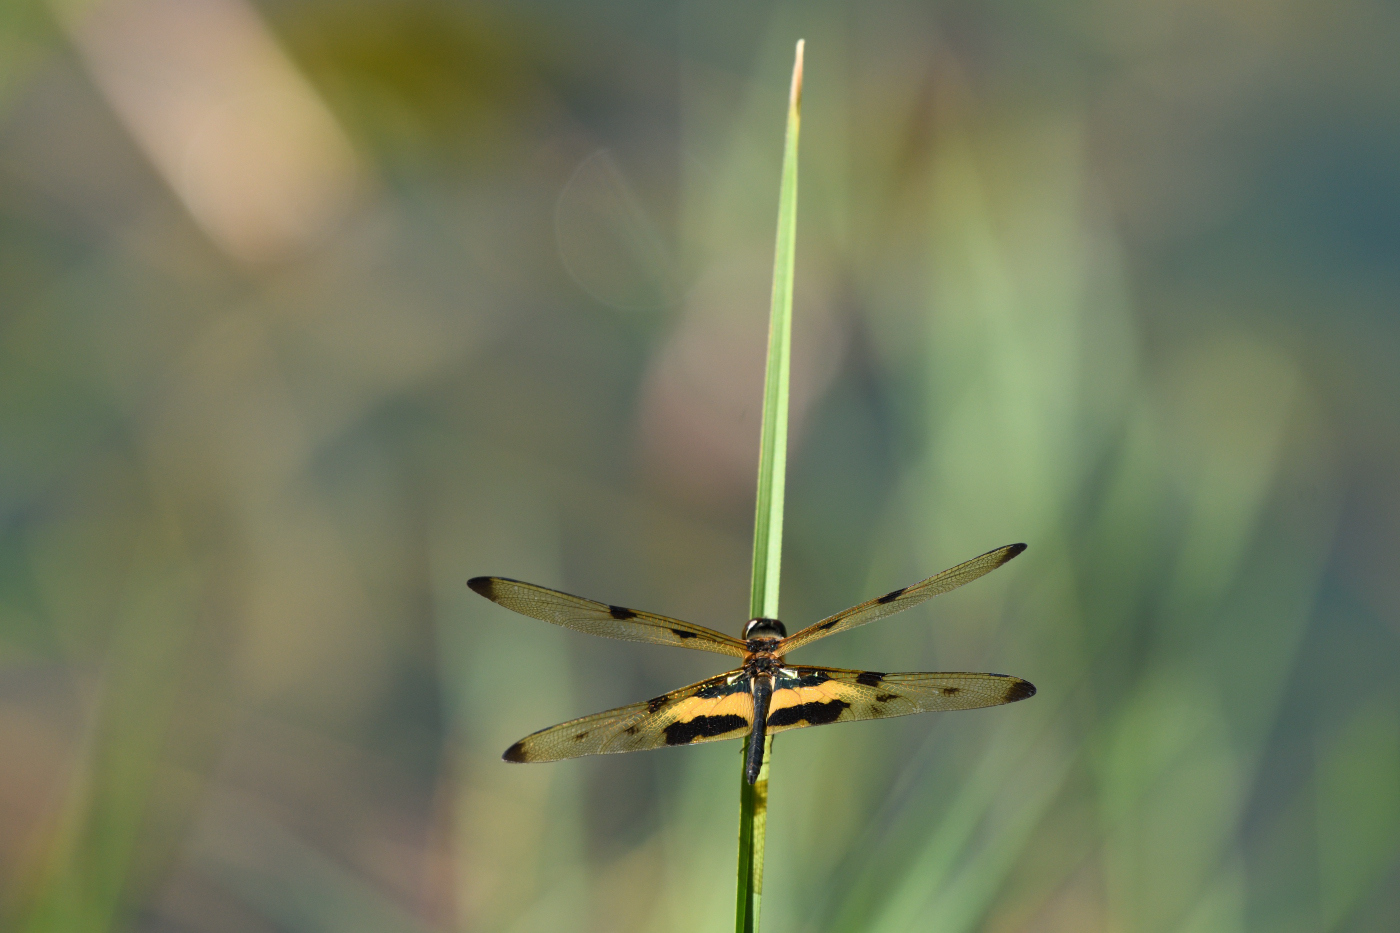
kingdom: Animalia
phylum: Arthropoda
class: Insecta
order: Odonata
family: Libellulidae
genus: Rhyothemis
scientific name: Rhyothemis variegata
